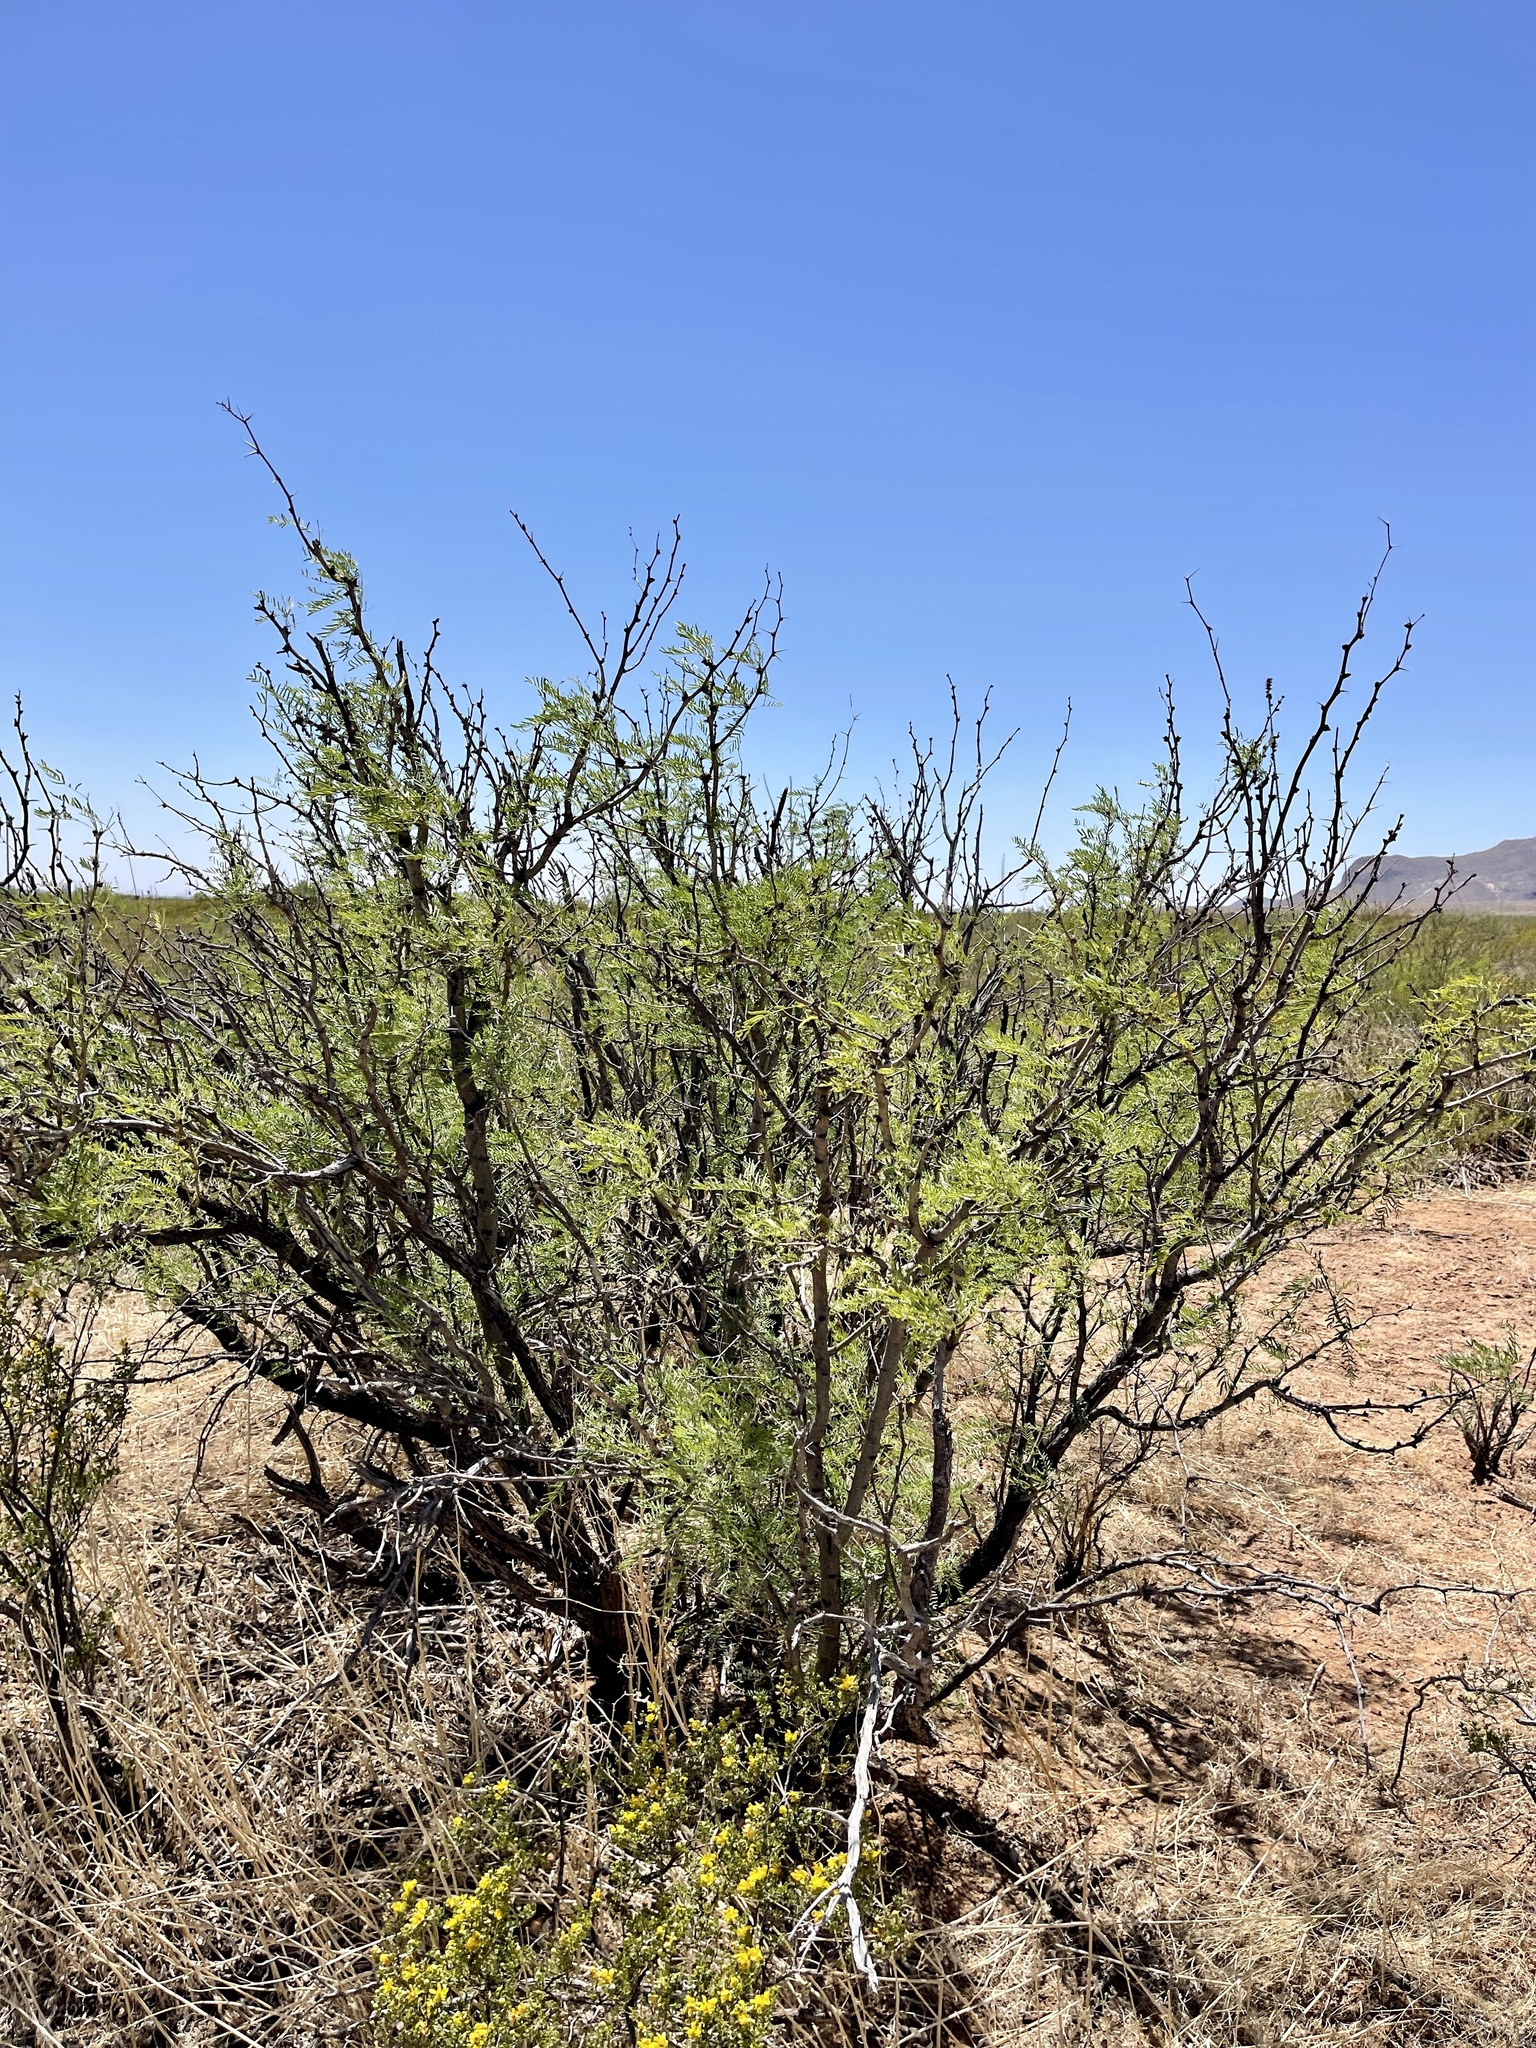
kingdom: Plantae
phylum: Tracheophyta
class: Magnoliopsida
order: Fabales
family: Fabaceae
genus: Prosopis
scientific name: Prosopis pubescens
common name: Screw-bean
